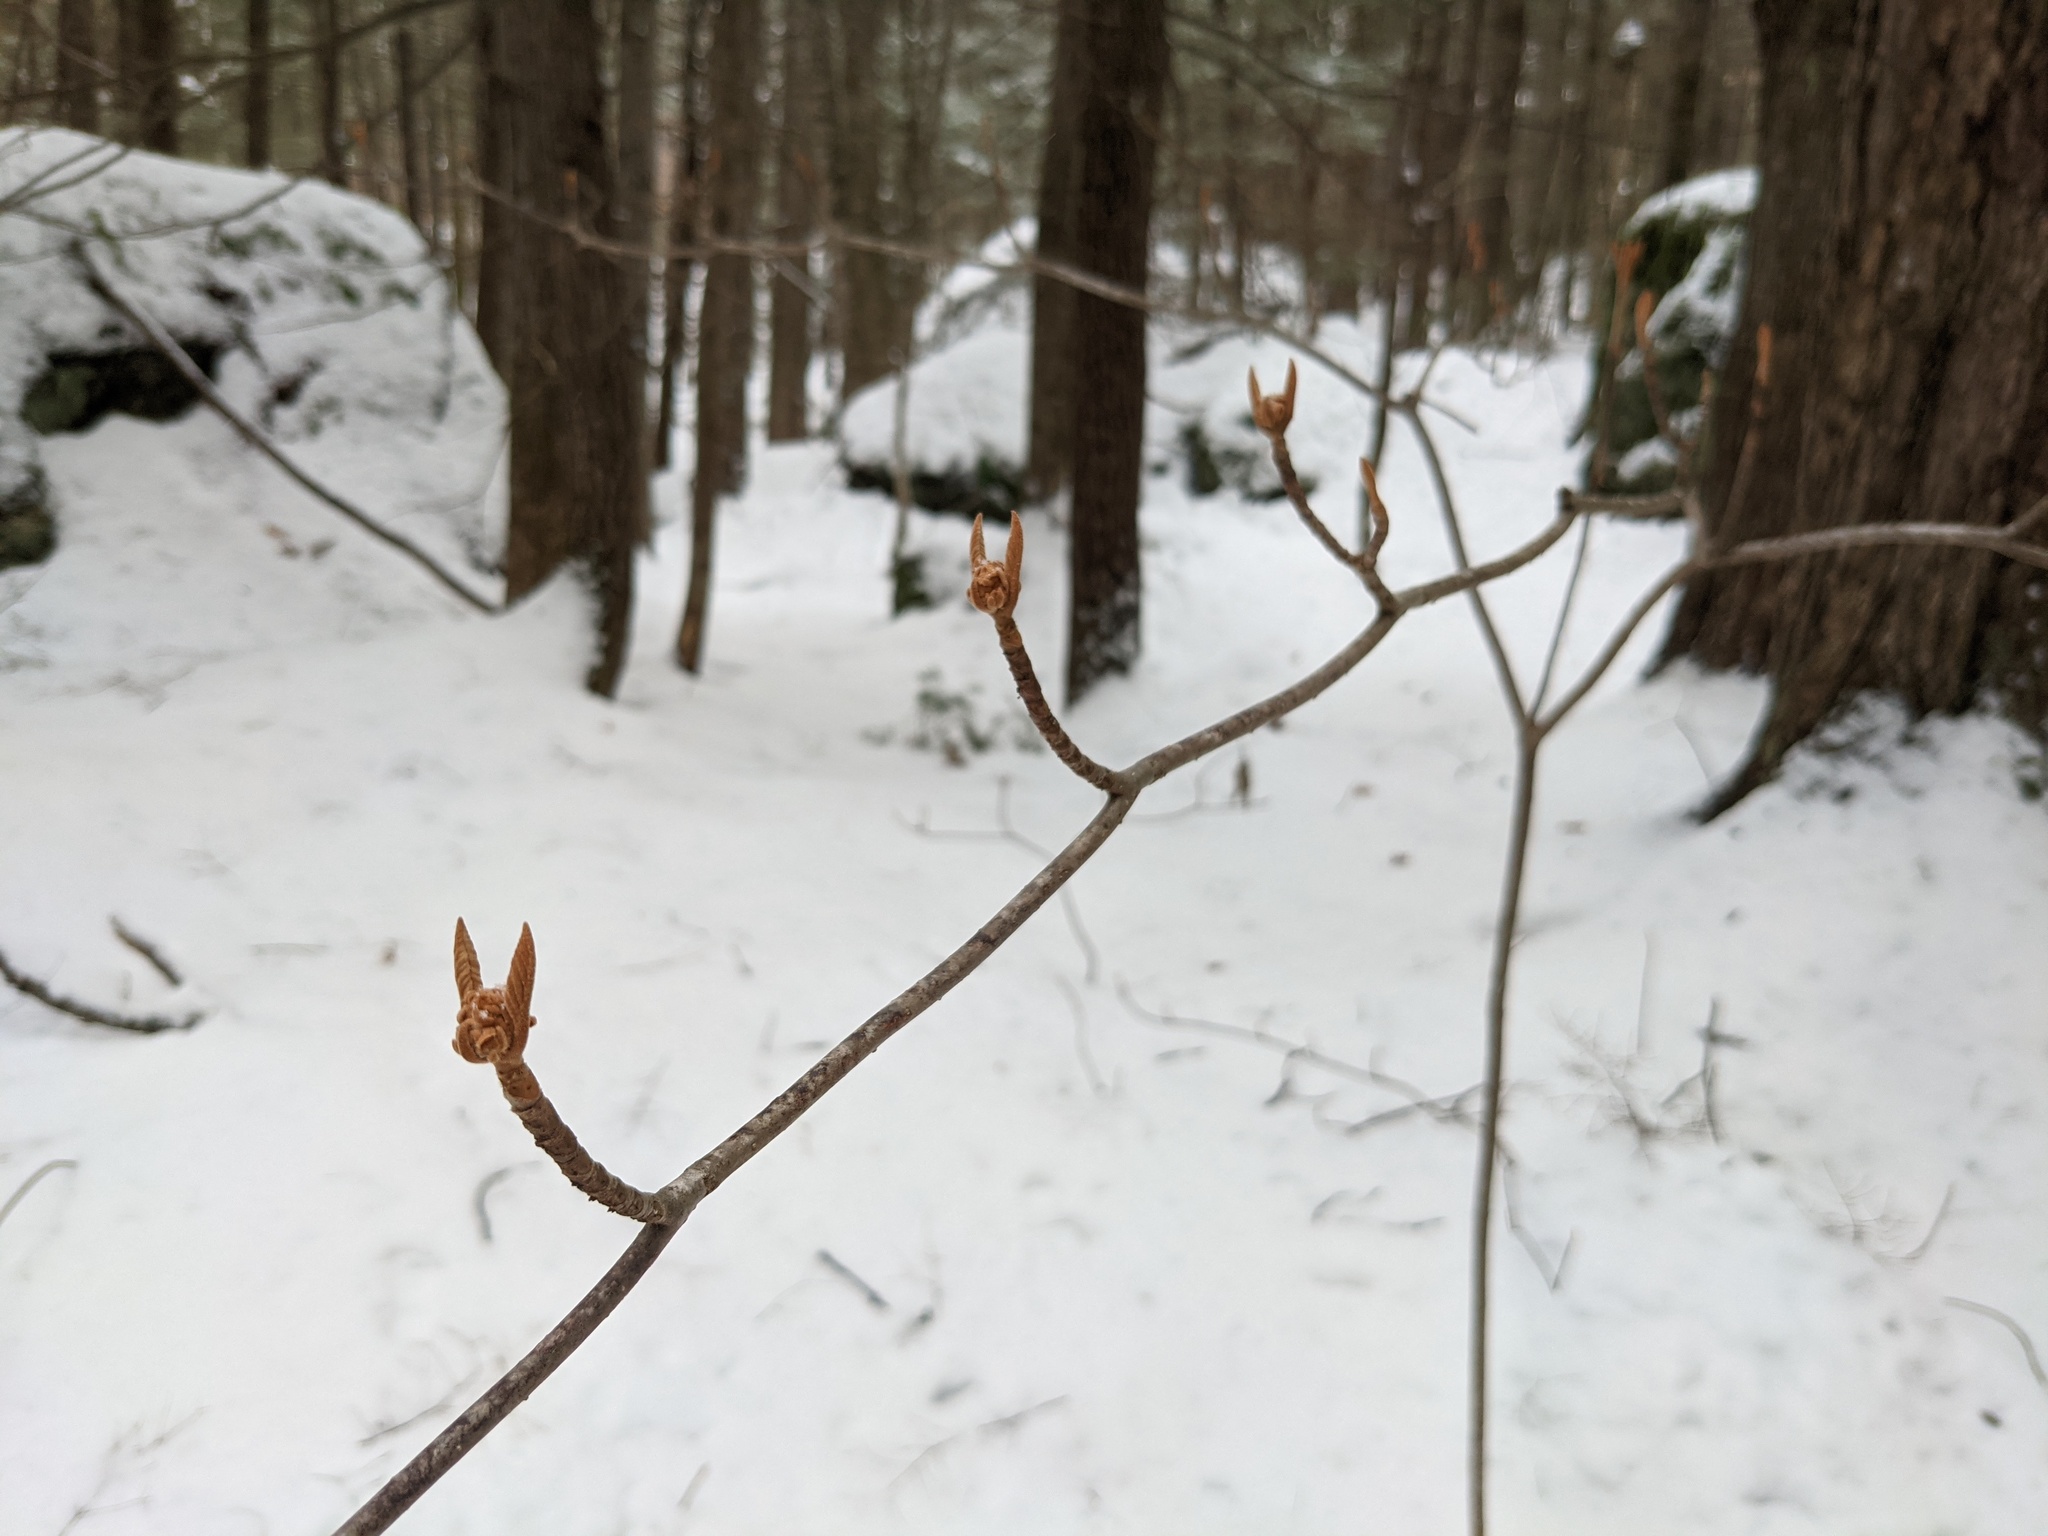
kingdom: Plantae
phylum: Tracheophyta
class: Magnoliopsida
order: Dipsacales
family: Viburnaceae
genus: Viburnum
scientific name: Viburnum lantanoides
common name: Hobblebush
